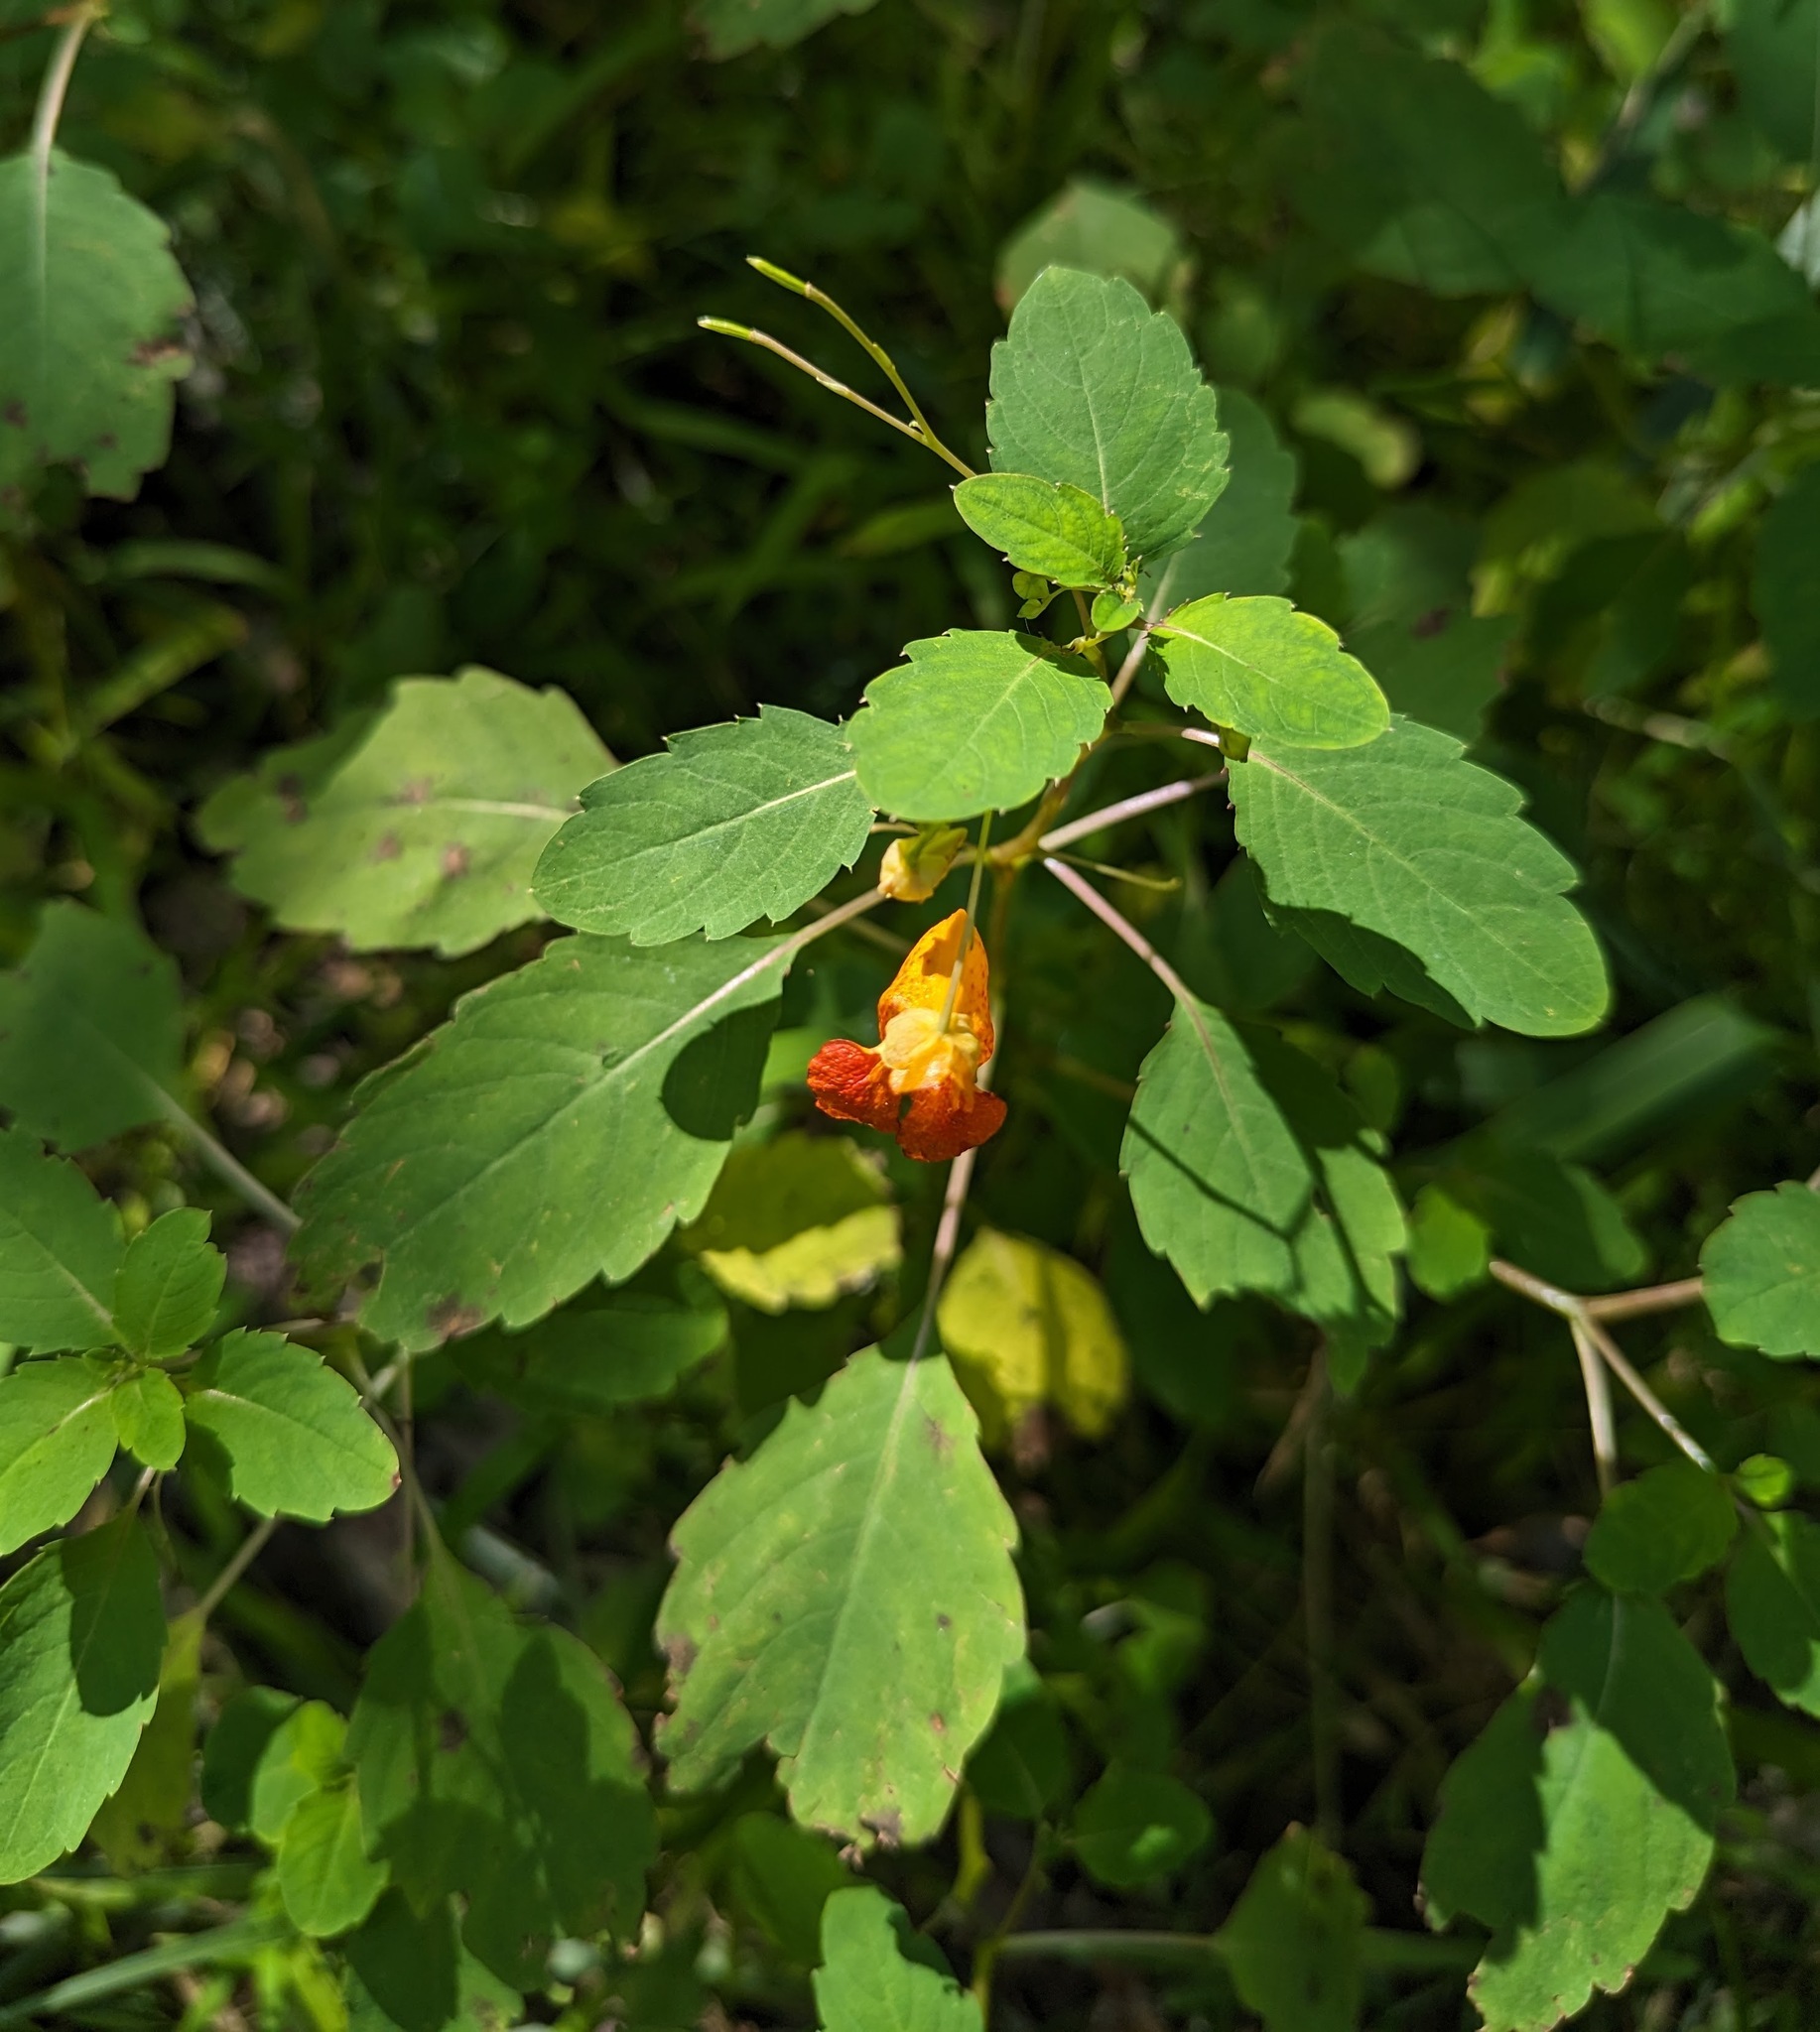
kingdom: Plantae
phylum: Tracheophyta
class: Magnoliopsida
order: Ericales
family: Balsaminaceae
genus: Impatiens
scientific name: Impatiens capensis
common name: Orange balsam
